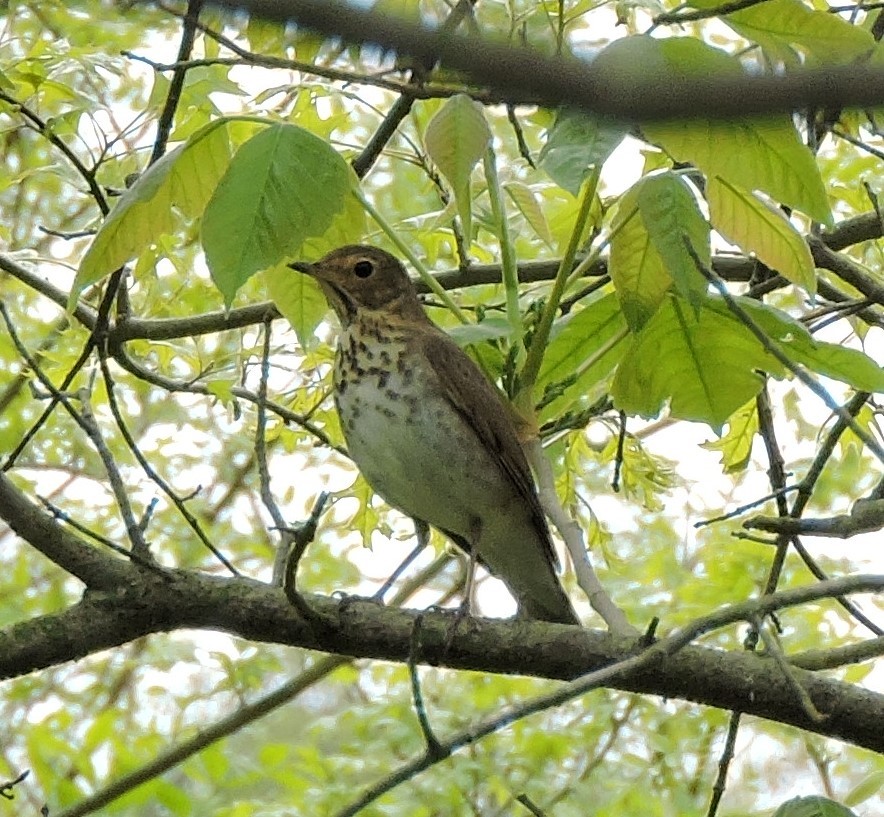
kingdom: Animalia
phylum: Chordata
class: Aves
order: Passeriformes
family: Turdidae
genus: Catharus
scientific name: Catharus ustulatus
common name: Swainson's thrush
